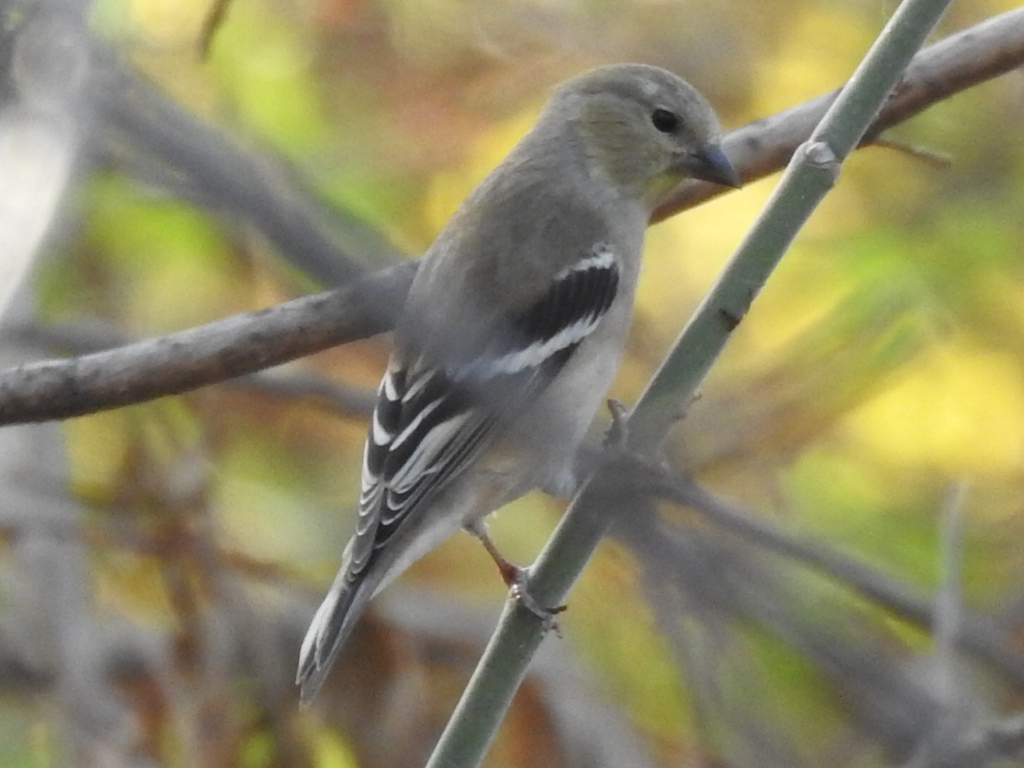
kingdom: Animalia
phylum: Chordata
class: Aves
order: Passeriformes
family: Fringillidae
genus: Spinus
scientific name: Spinus tristis
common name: American goldfinch
